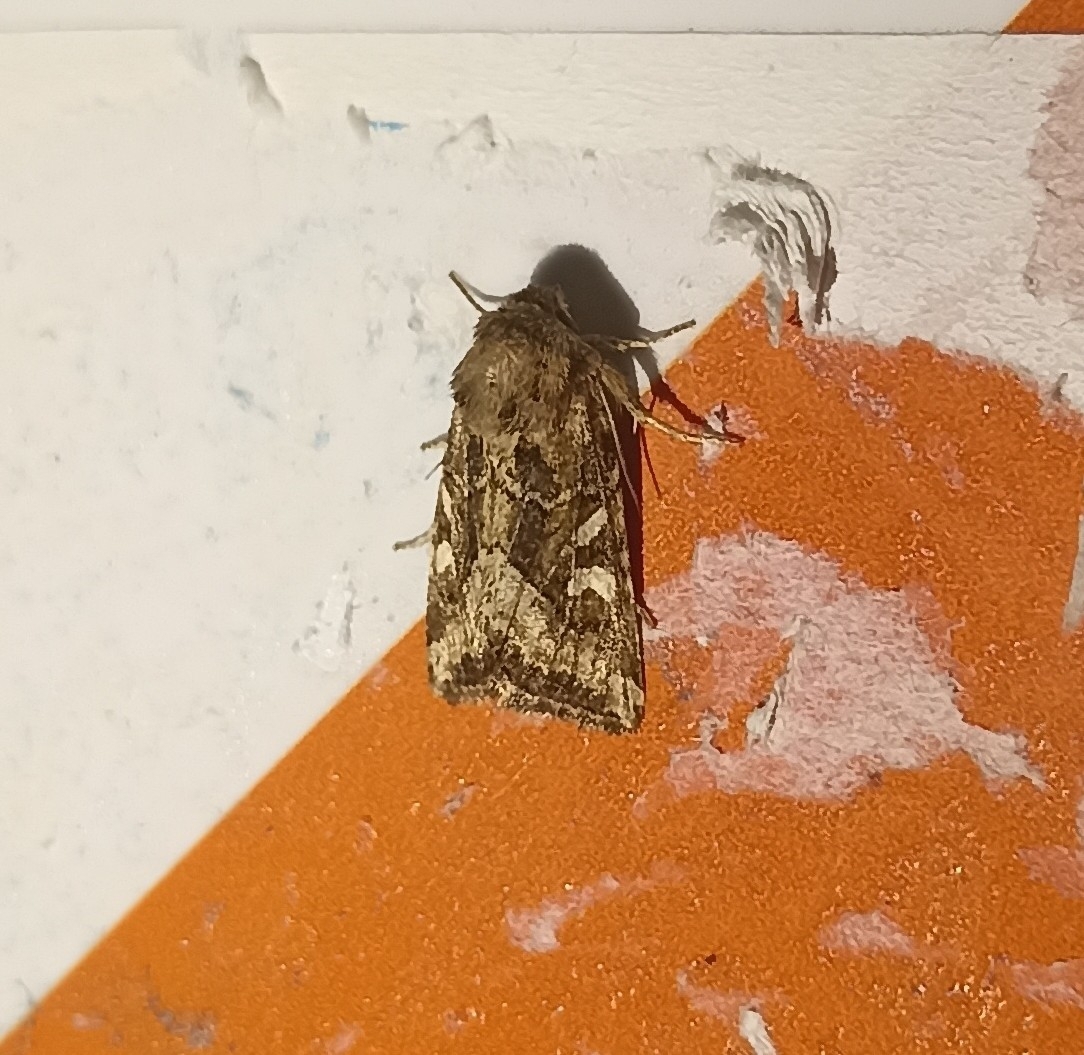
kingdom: Animalia
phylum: Arthropoda
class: Insecta
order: Lepidoptera
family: Noctuidae
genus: Luperina
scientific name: Luperina dumerilii
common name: Dumeril's rustic
